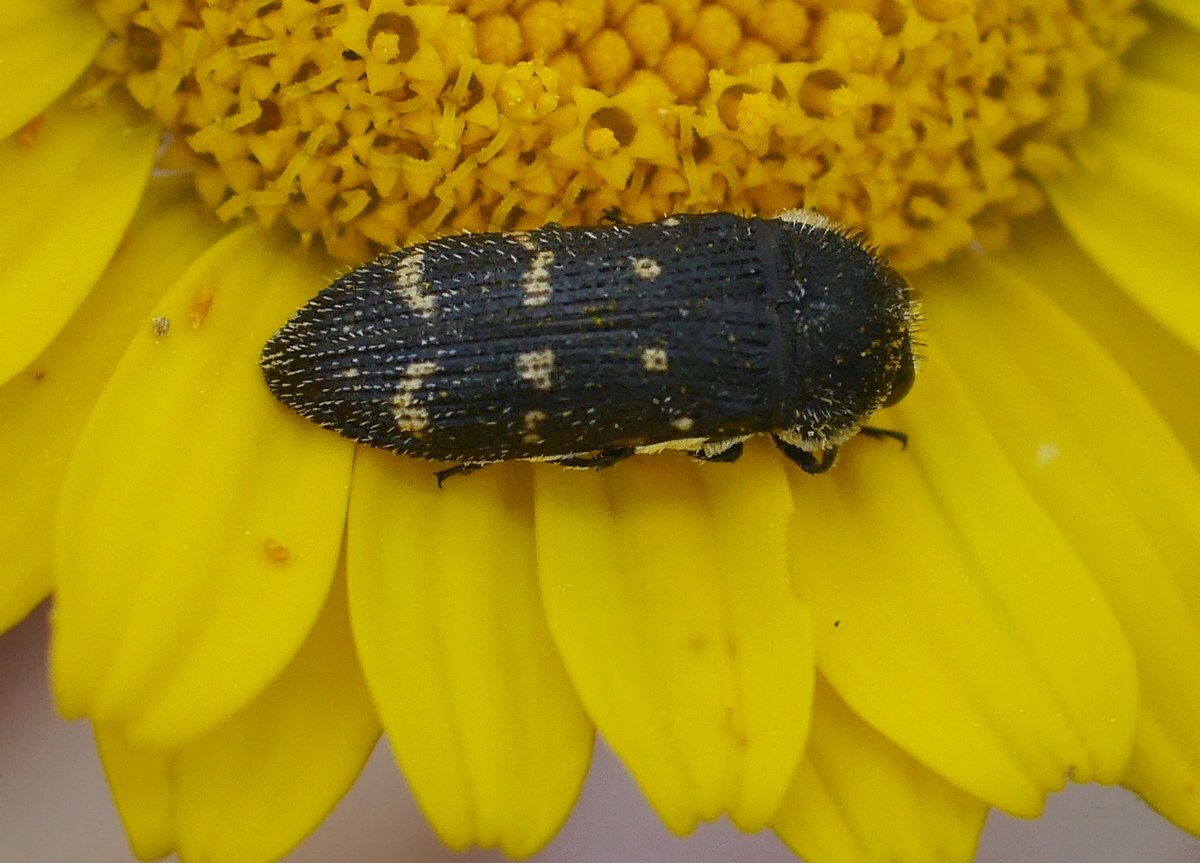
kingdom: Animalia
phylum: Arthropoda
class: Insecta
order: Coleoptera
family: Buprestidae
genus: Acmaeoderella
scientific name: Acmaeoderella flavofasciata
